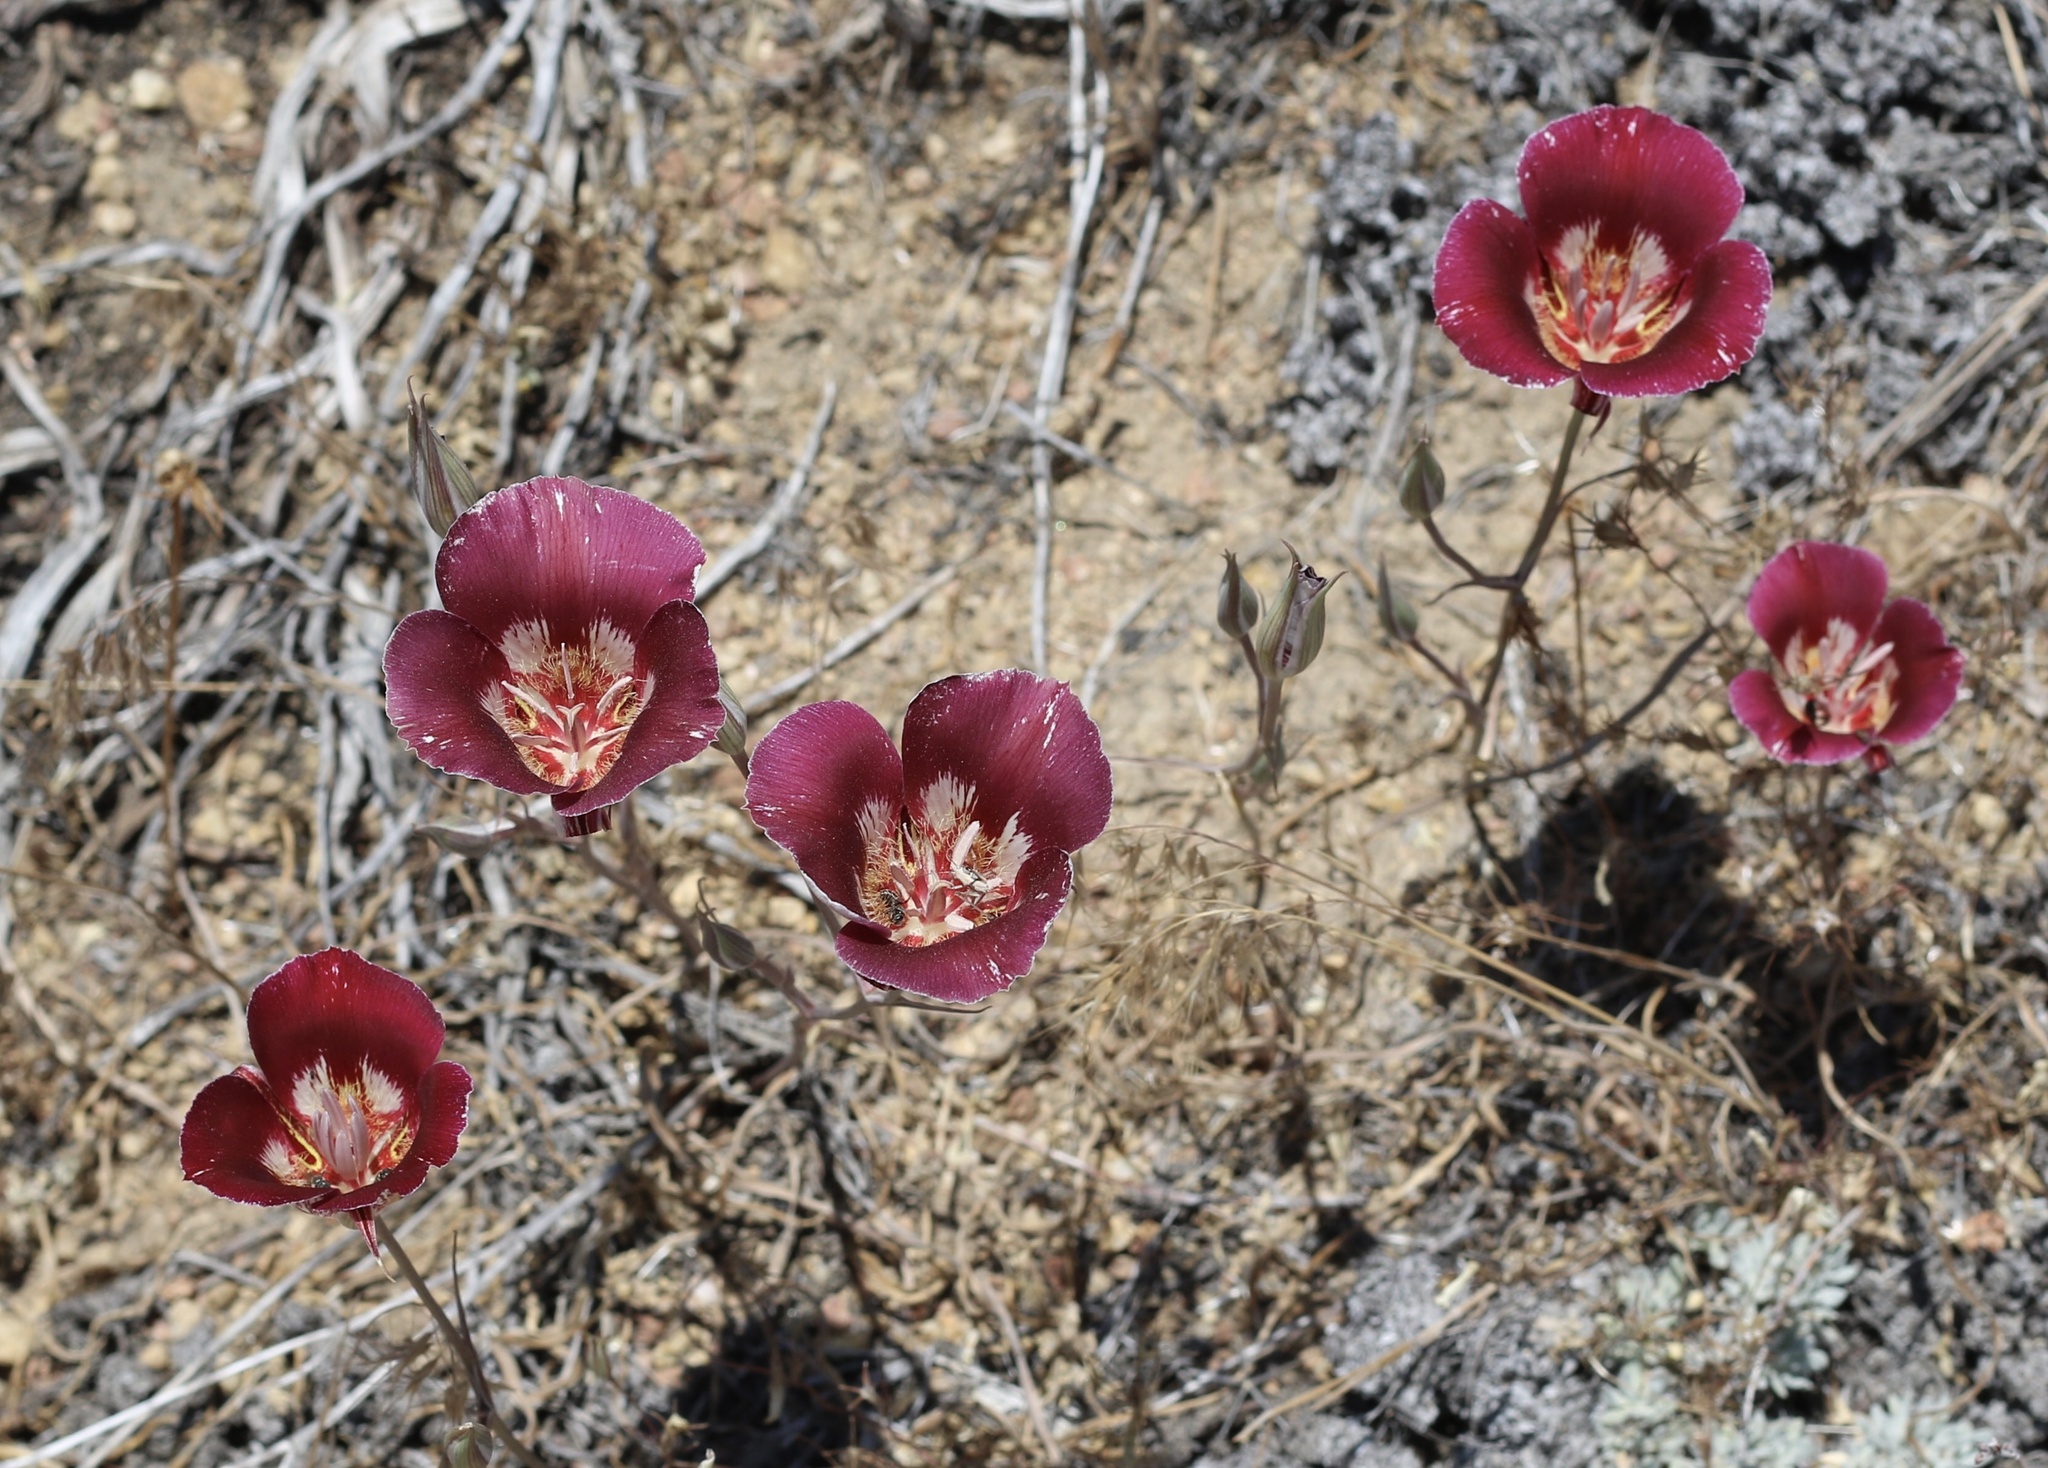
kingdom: Plantae
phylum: Tracheophyta
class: Liliopsida
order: Liliales
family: Liliaceae
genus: Calochortus
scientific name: Calochortus venustus
